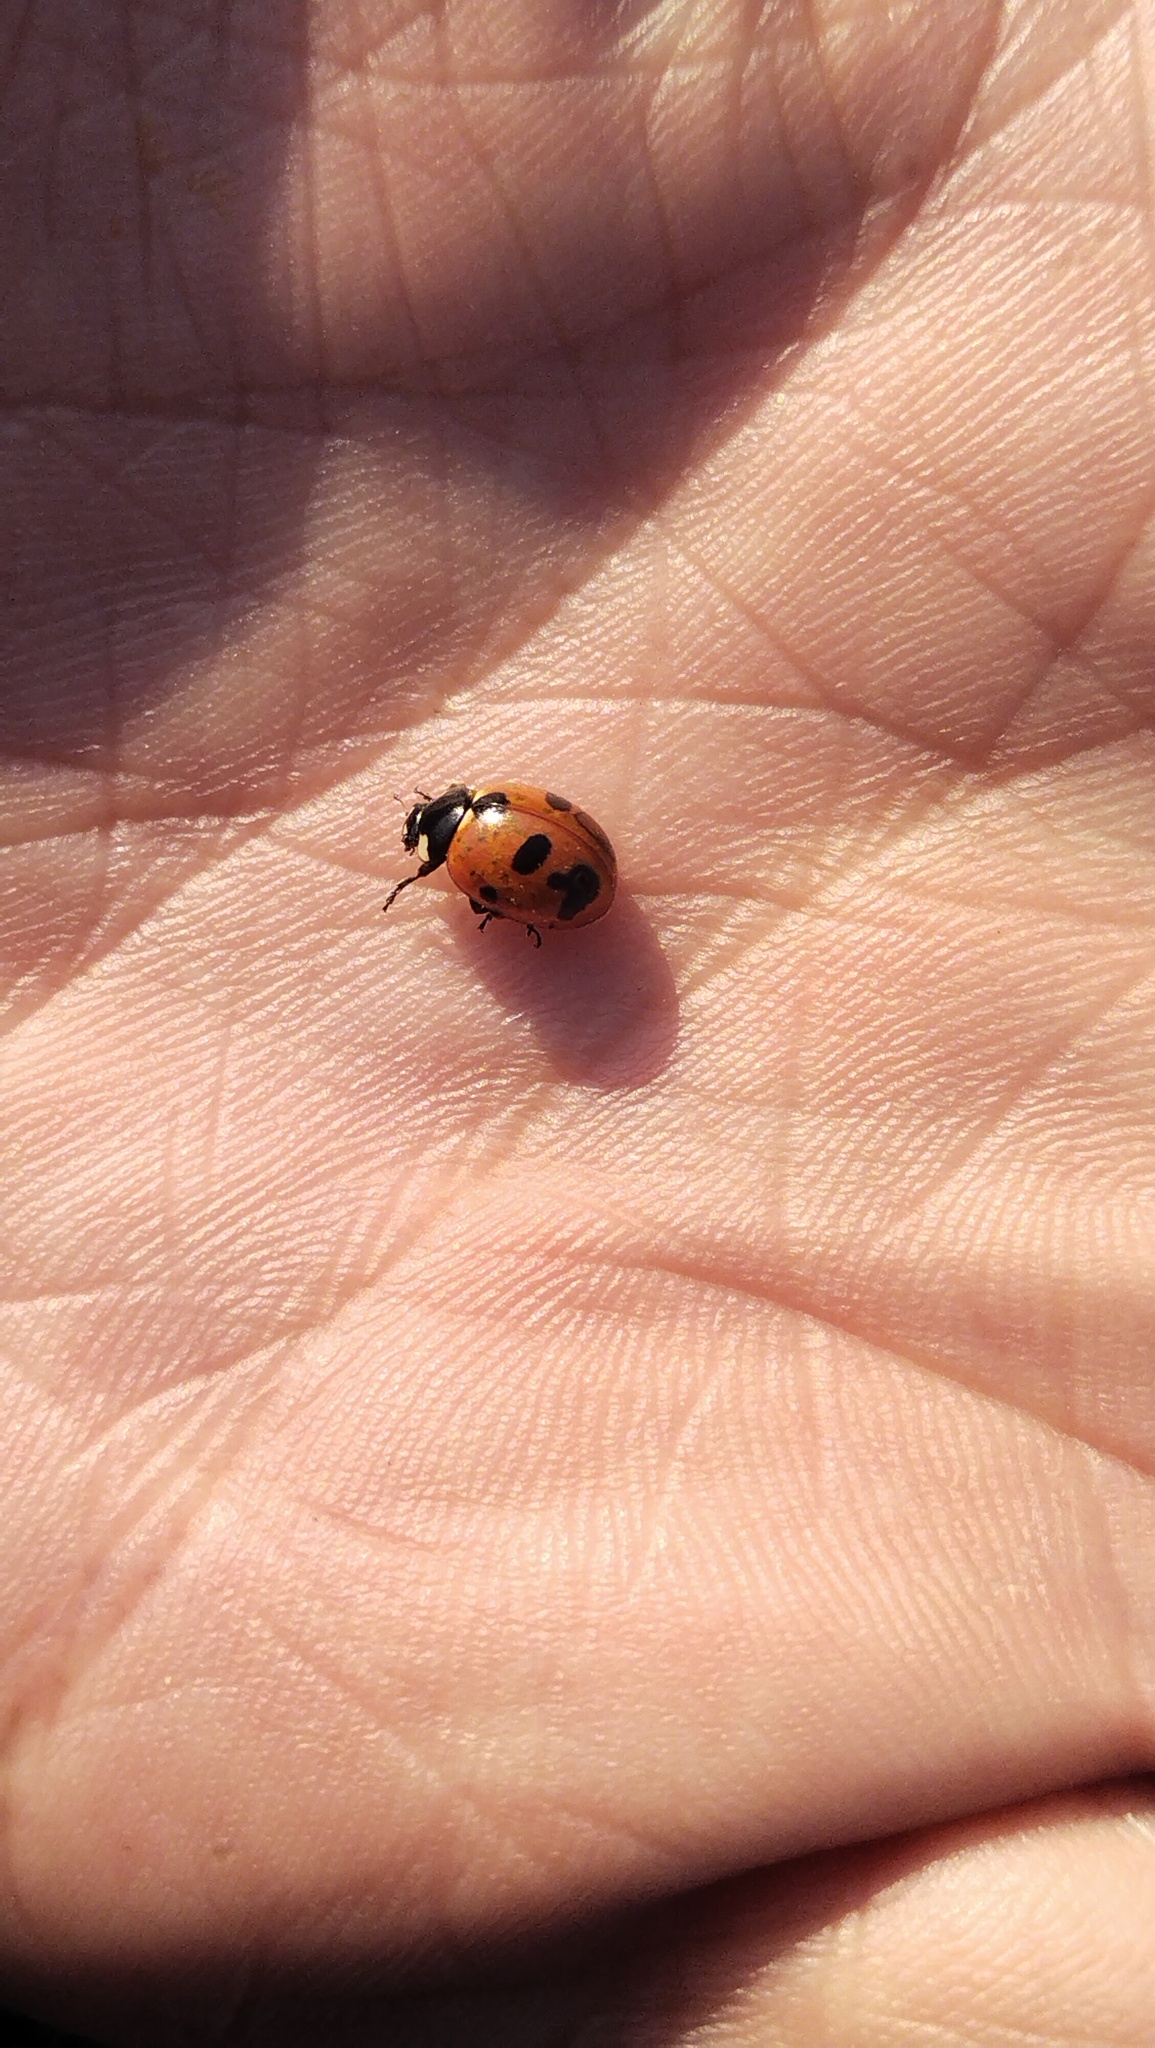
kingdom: Animalia
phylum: Arthropoda
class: Insecta
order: Coleoptera
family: Coccinellidae
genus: Coccinella
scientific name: Coccinella magnifica
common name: Scarce 7-spot ladybird
